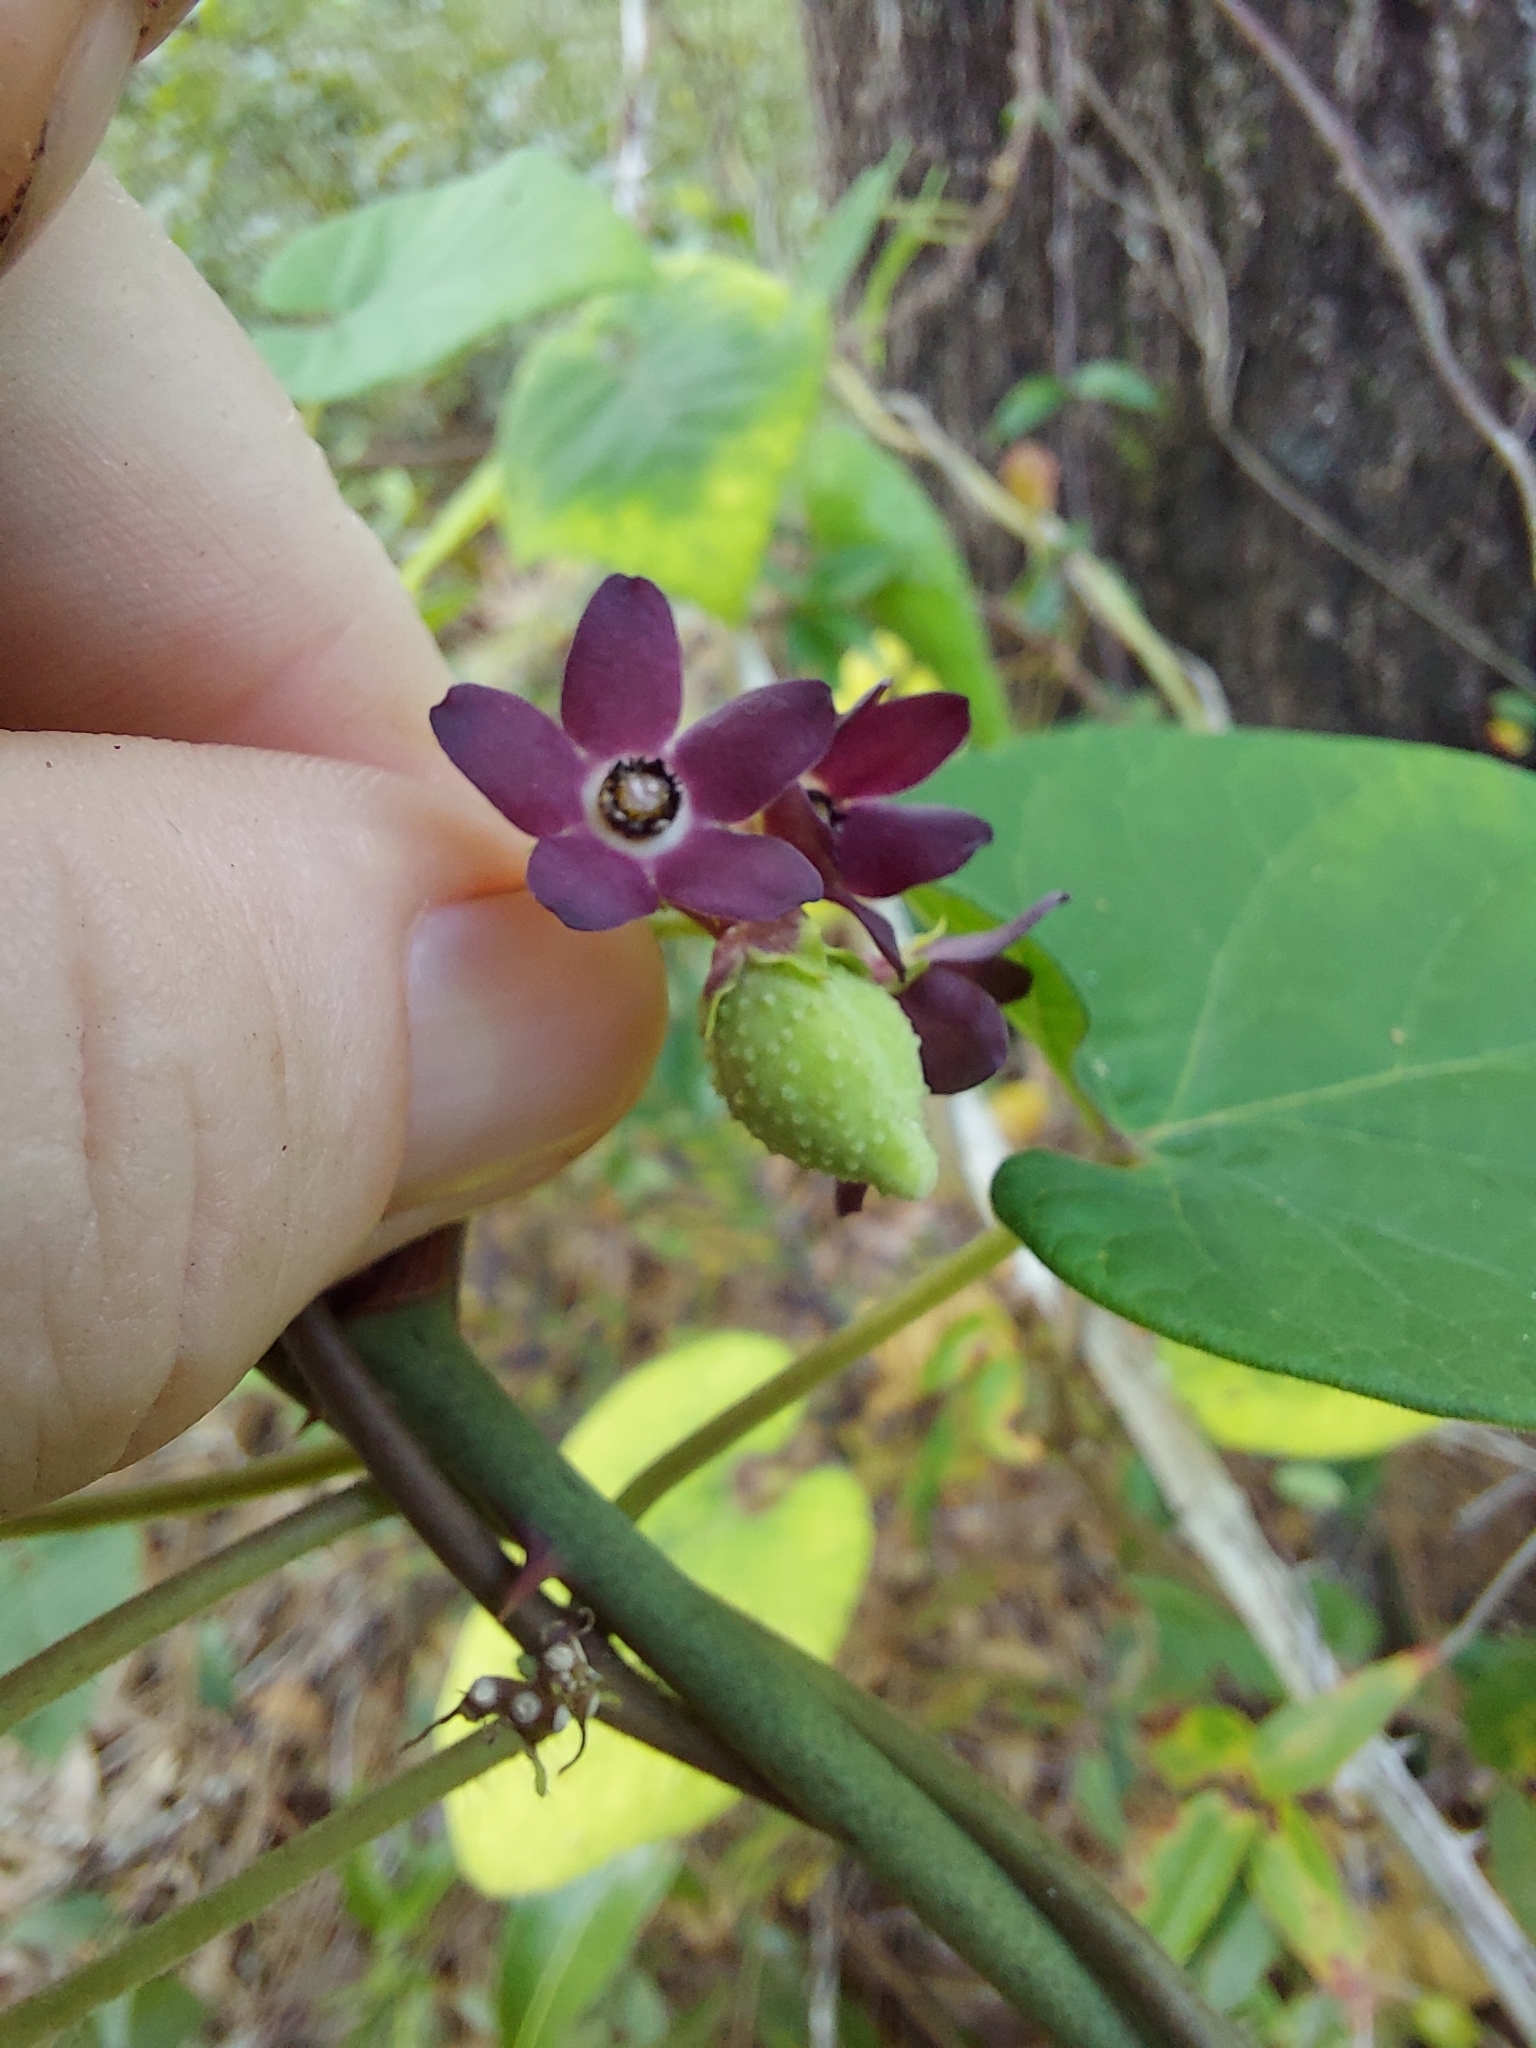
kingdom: Plantae
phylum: Tracheophyta
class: Magnoliopsida
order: Gentianales
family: Apocynaceae
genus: Matelea
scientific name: Matelea floridana
